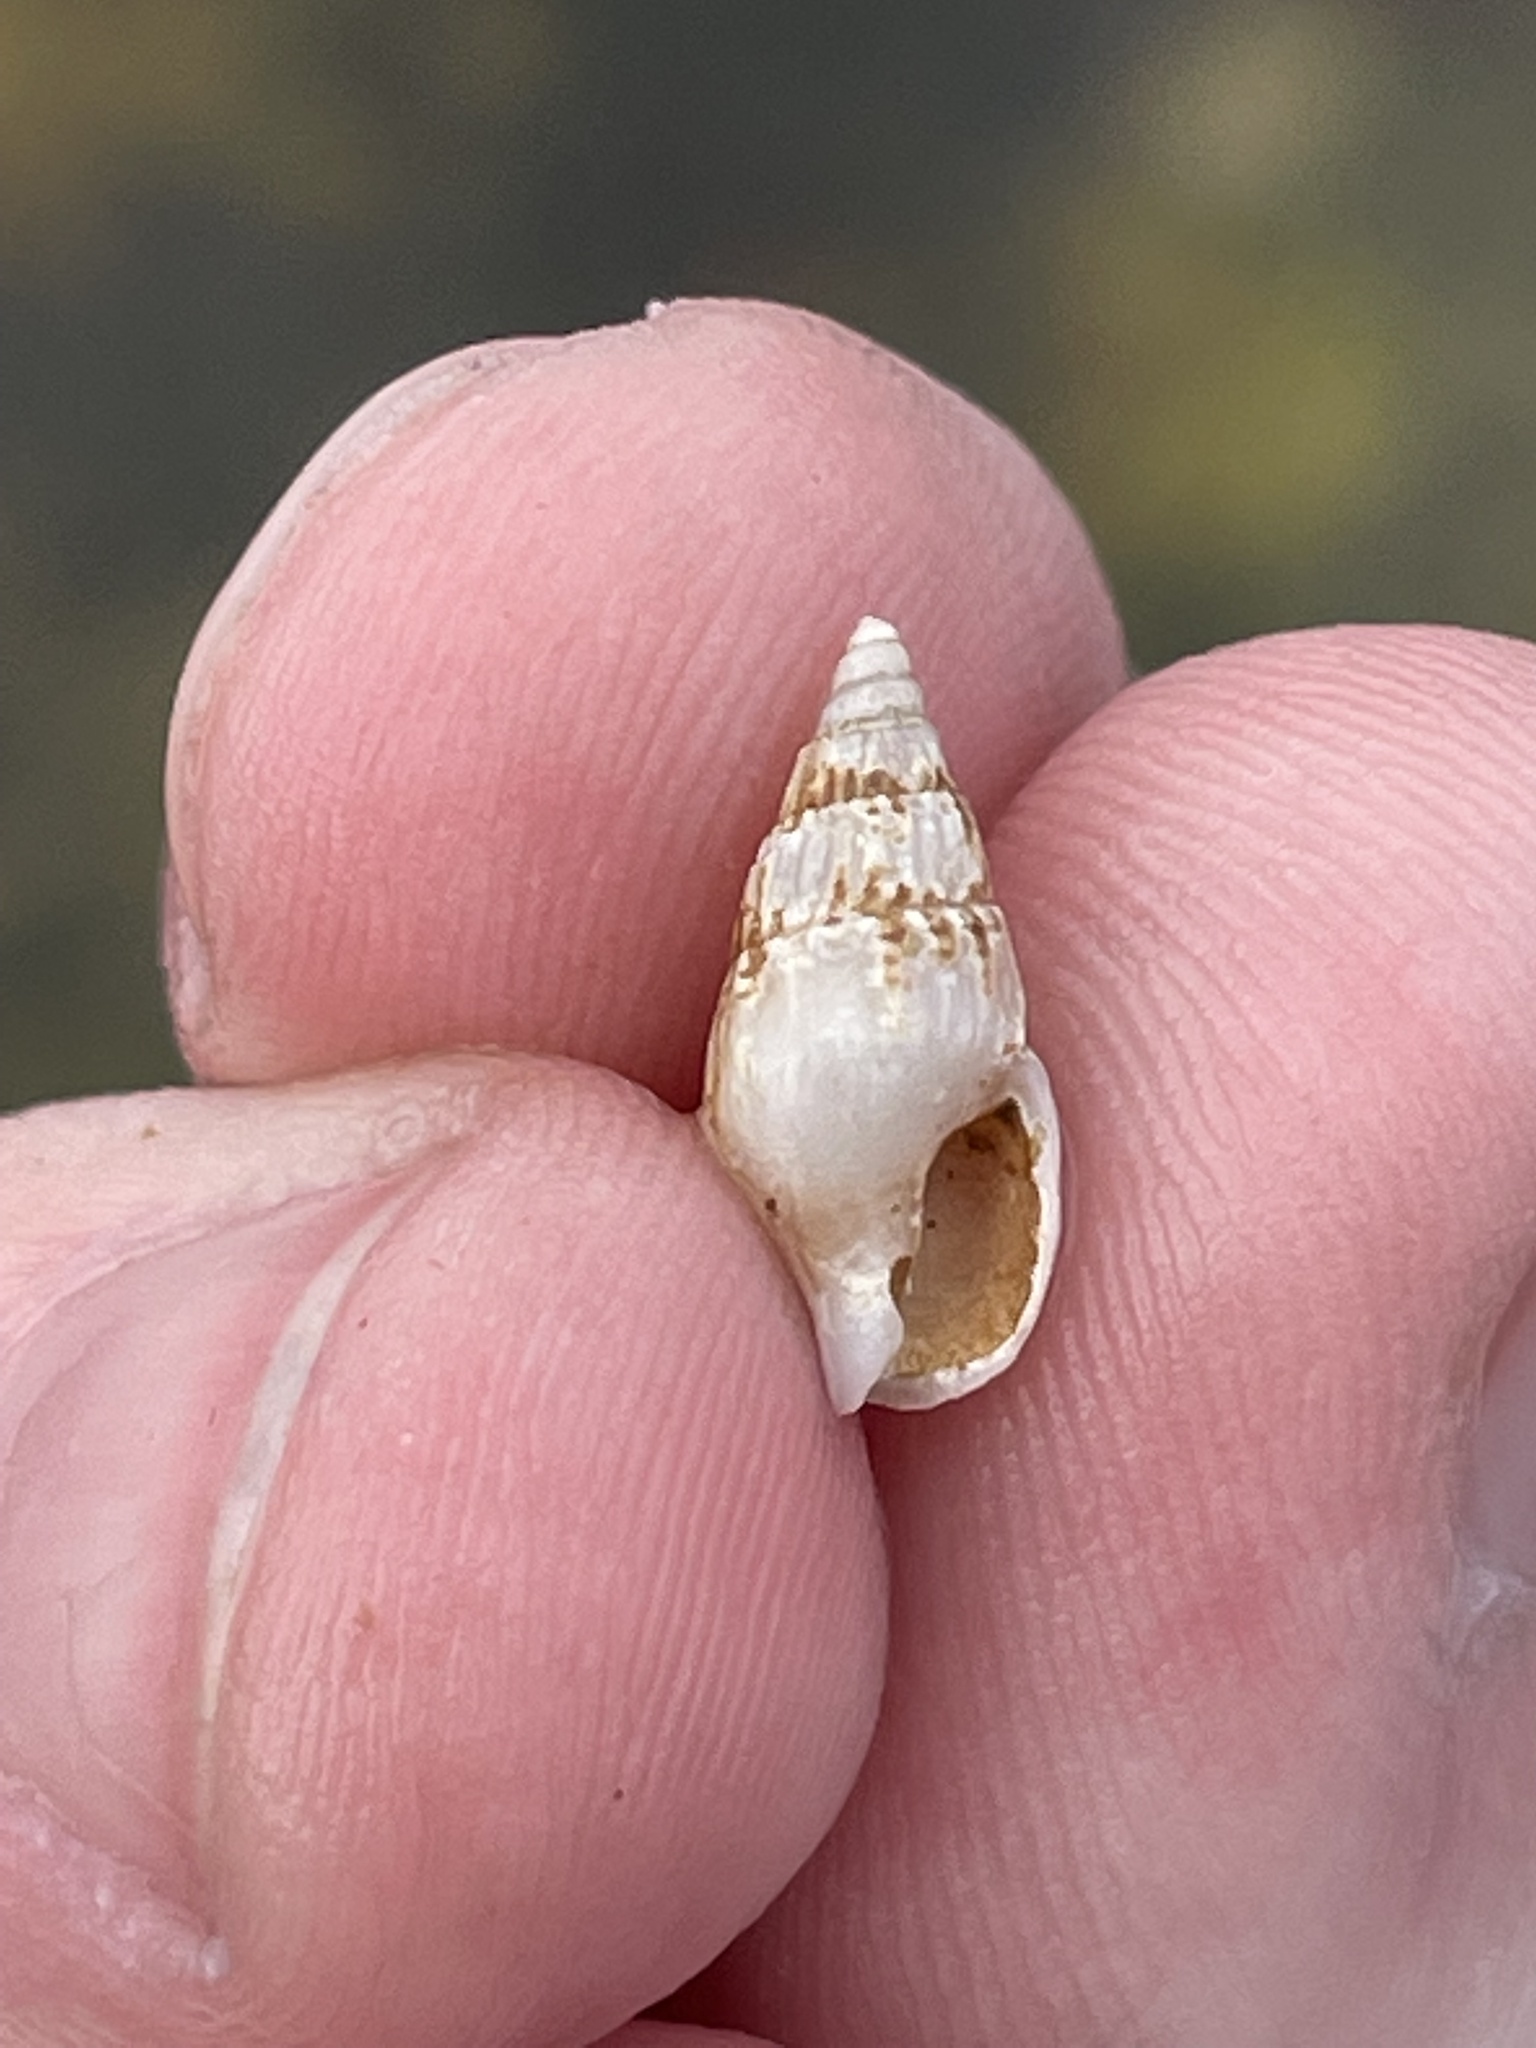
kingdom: Animalia
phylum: Mollusca
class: Gastropoda
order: Neogastropoda
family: Columbellidae
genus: Costoanachis
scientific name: Costoanachis translirata
